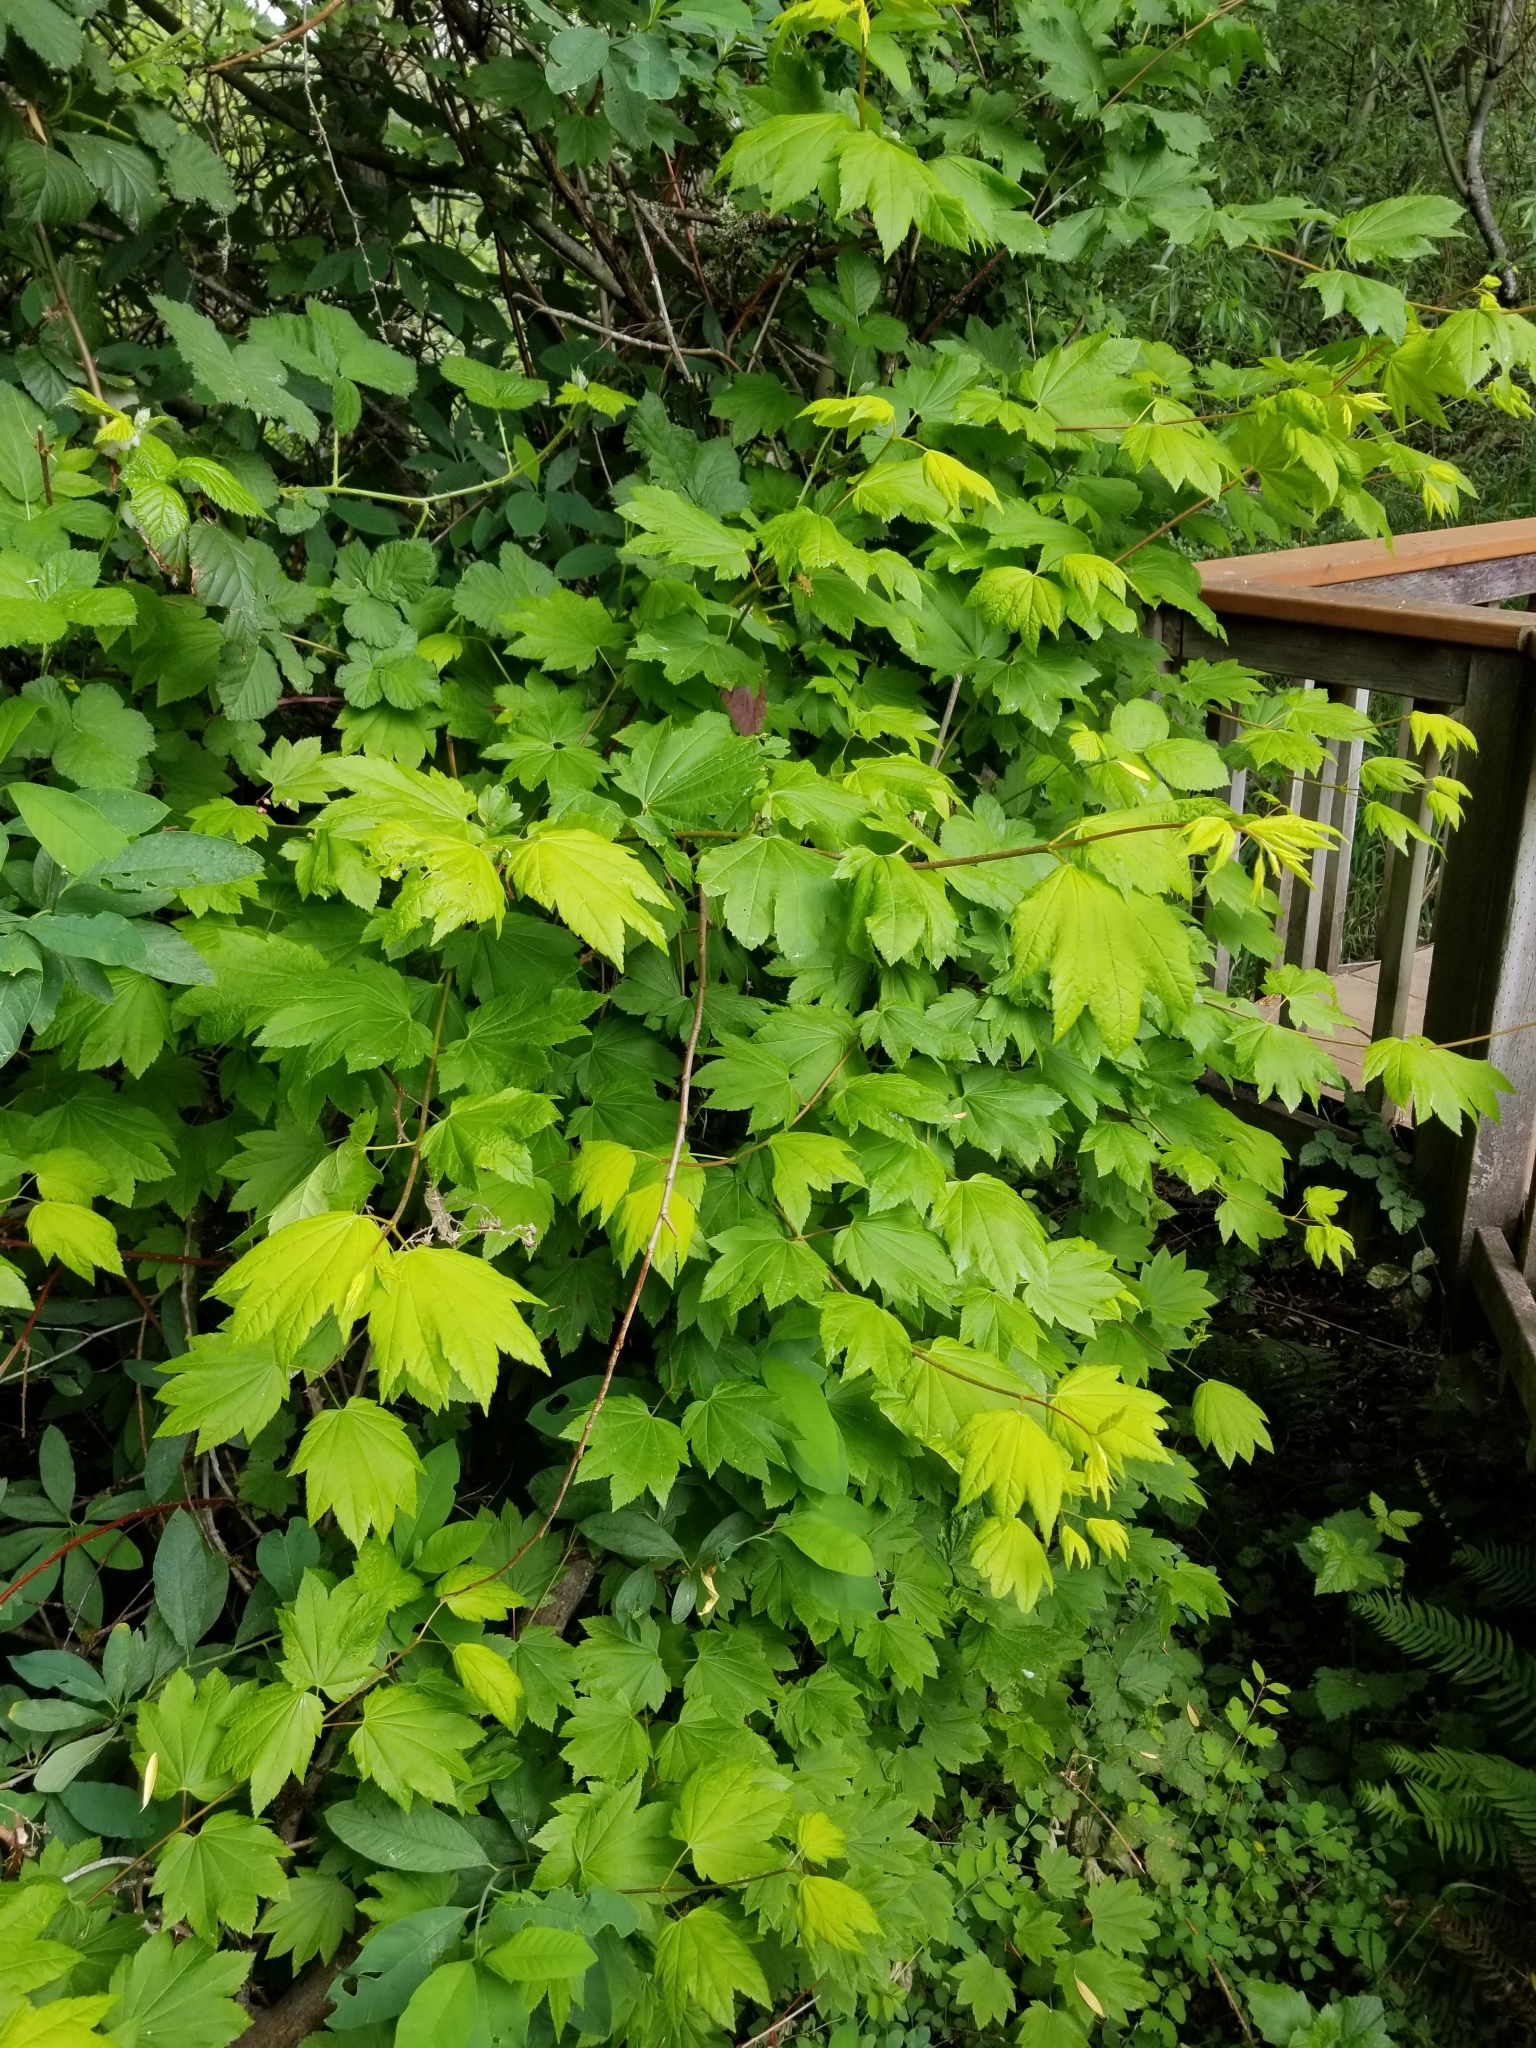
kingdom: Plantae
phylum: Tracheophyta
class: Magnoliopsida
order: Sapindales
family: Sapindaceae
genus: Acer
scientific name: Acer circinatum
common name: Vine maple
